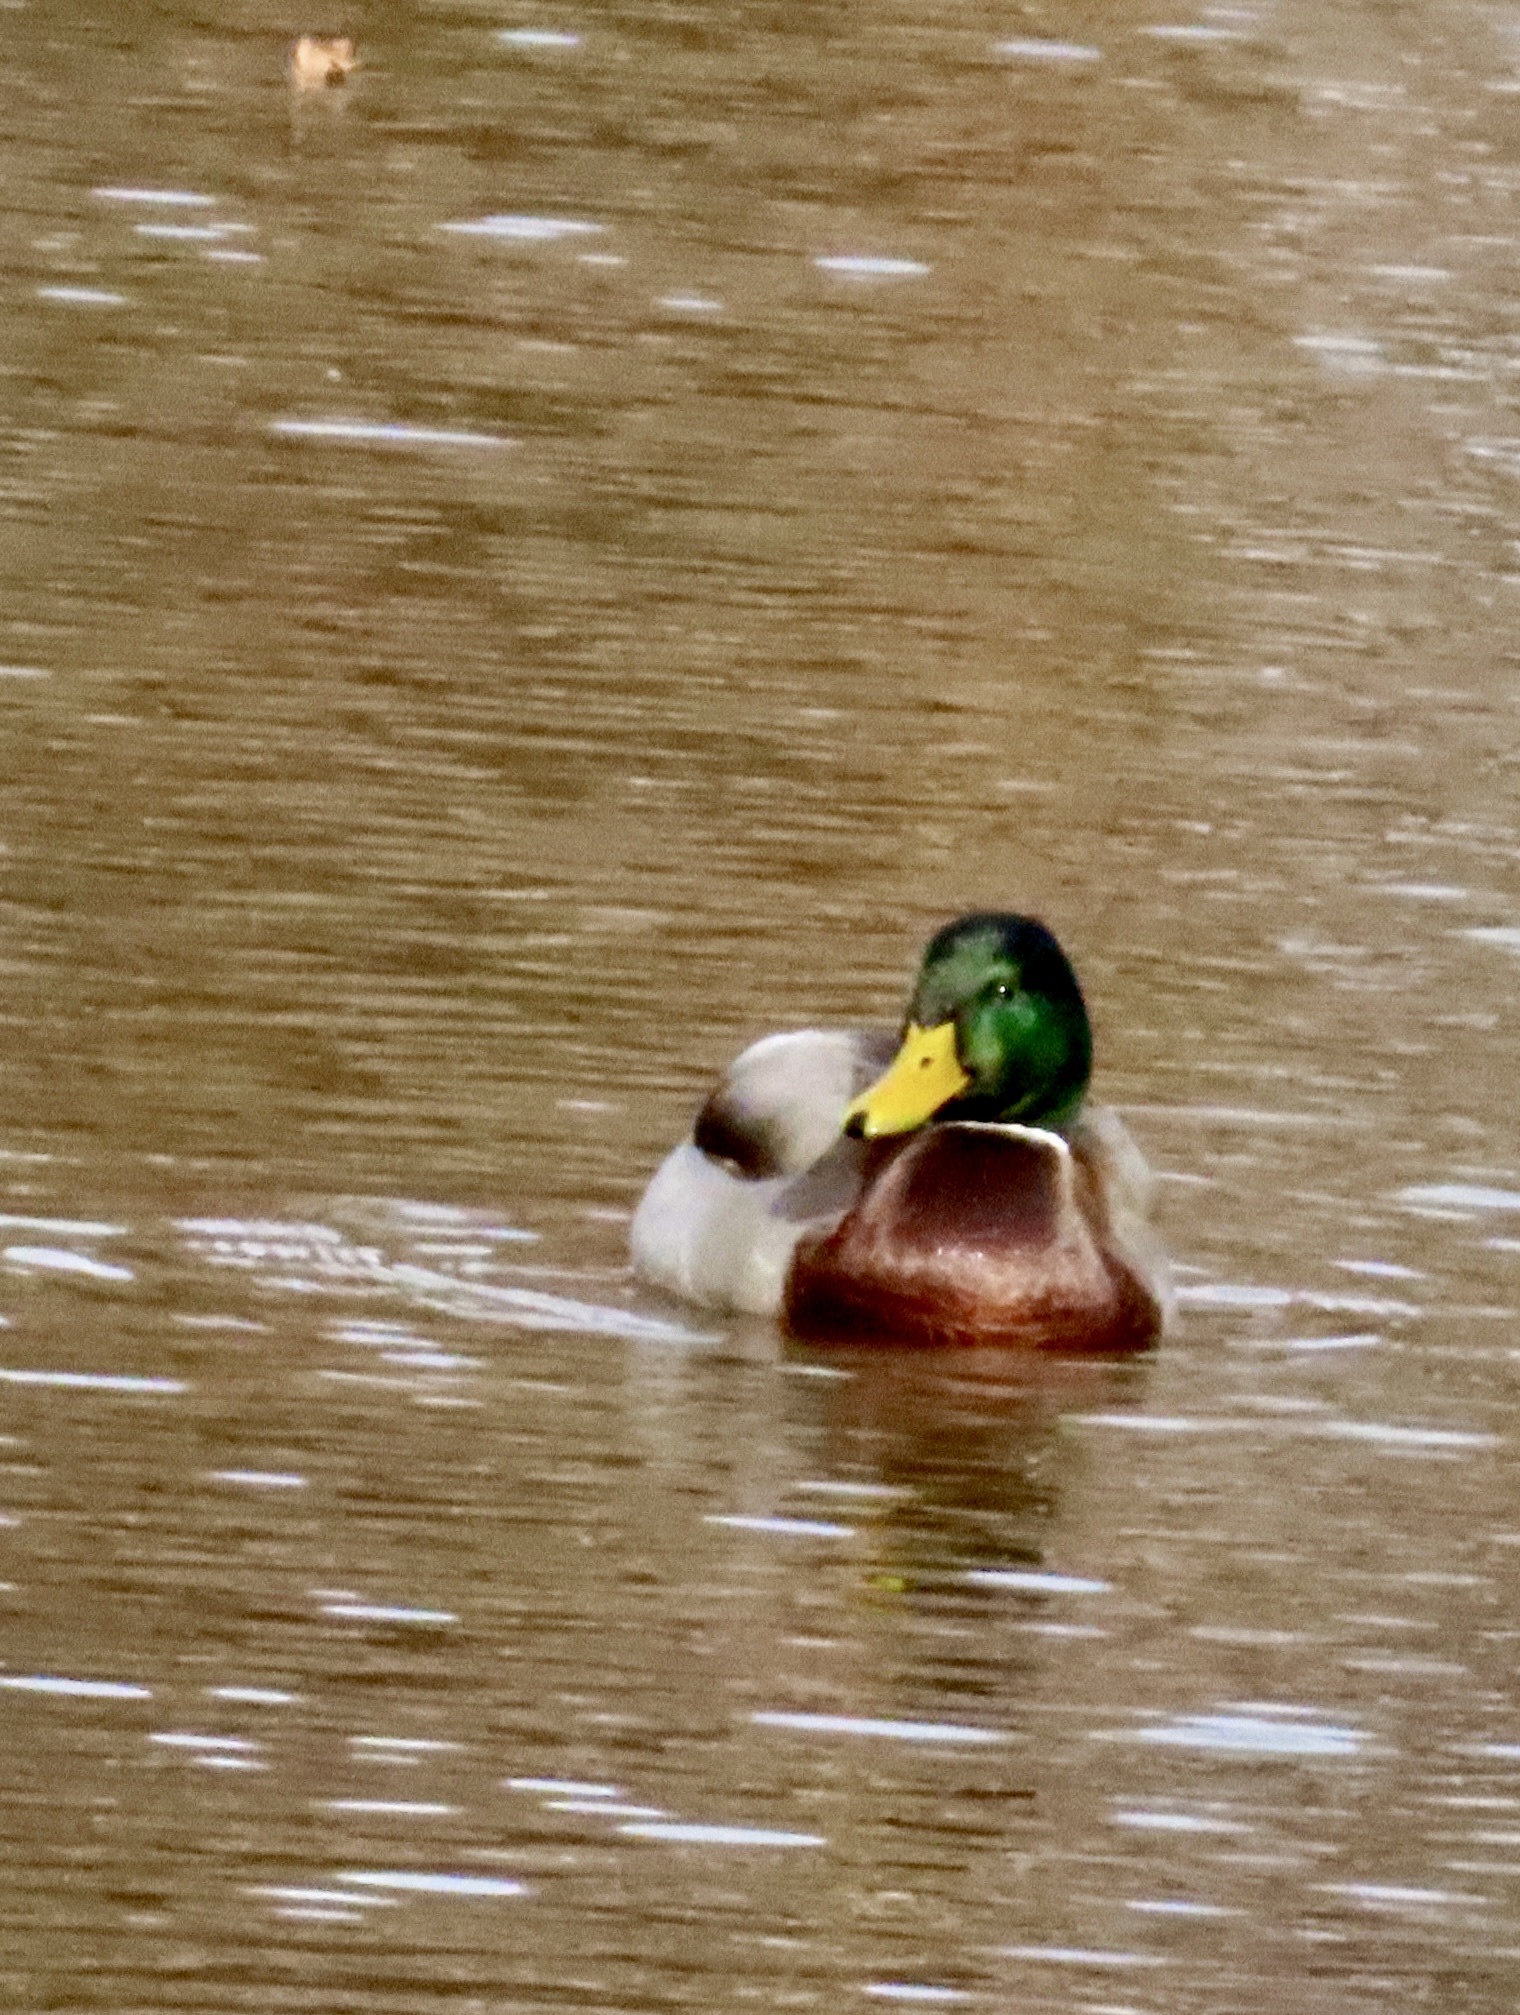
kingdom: Animalia
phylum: Chordata
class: Aves
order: Anseriformes
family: Anatidae
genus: Anas
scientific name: Anas platyrhynchos
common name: Mallard
